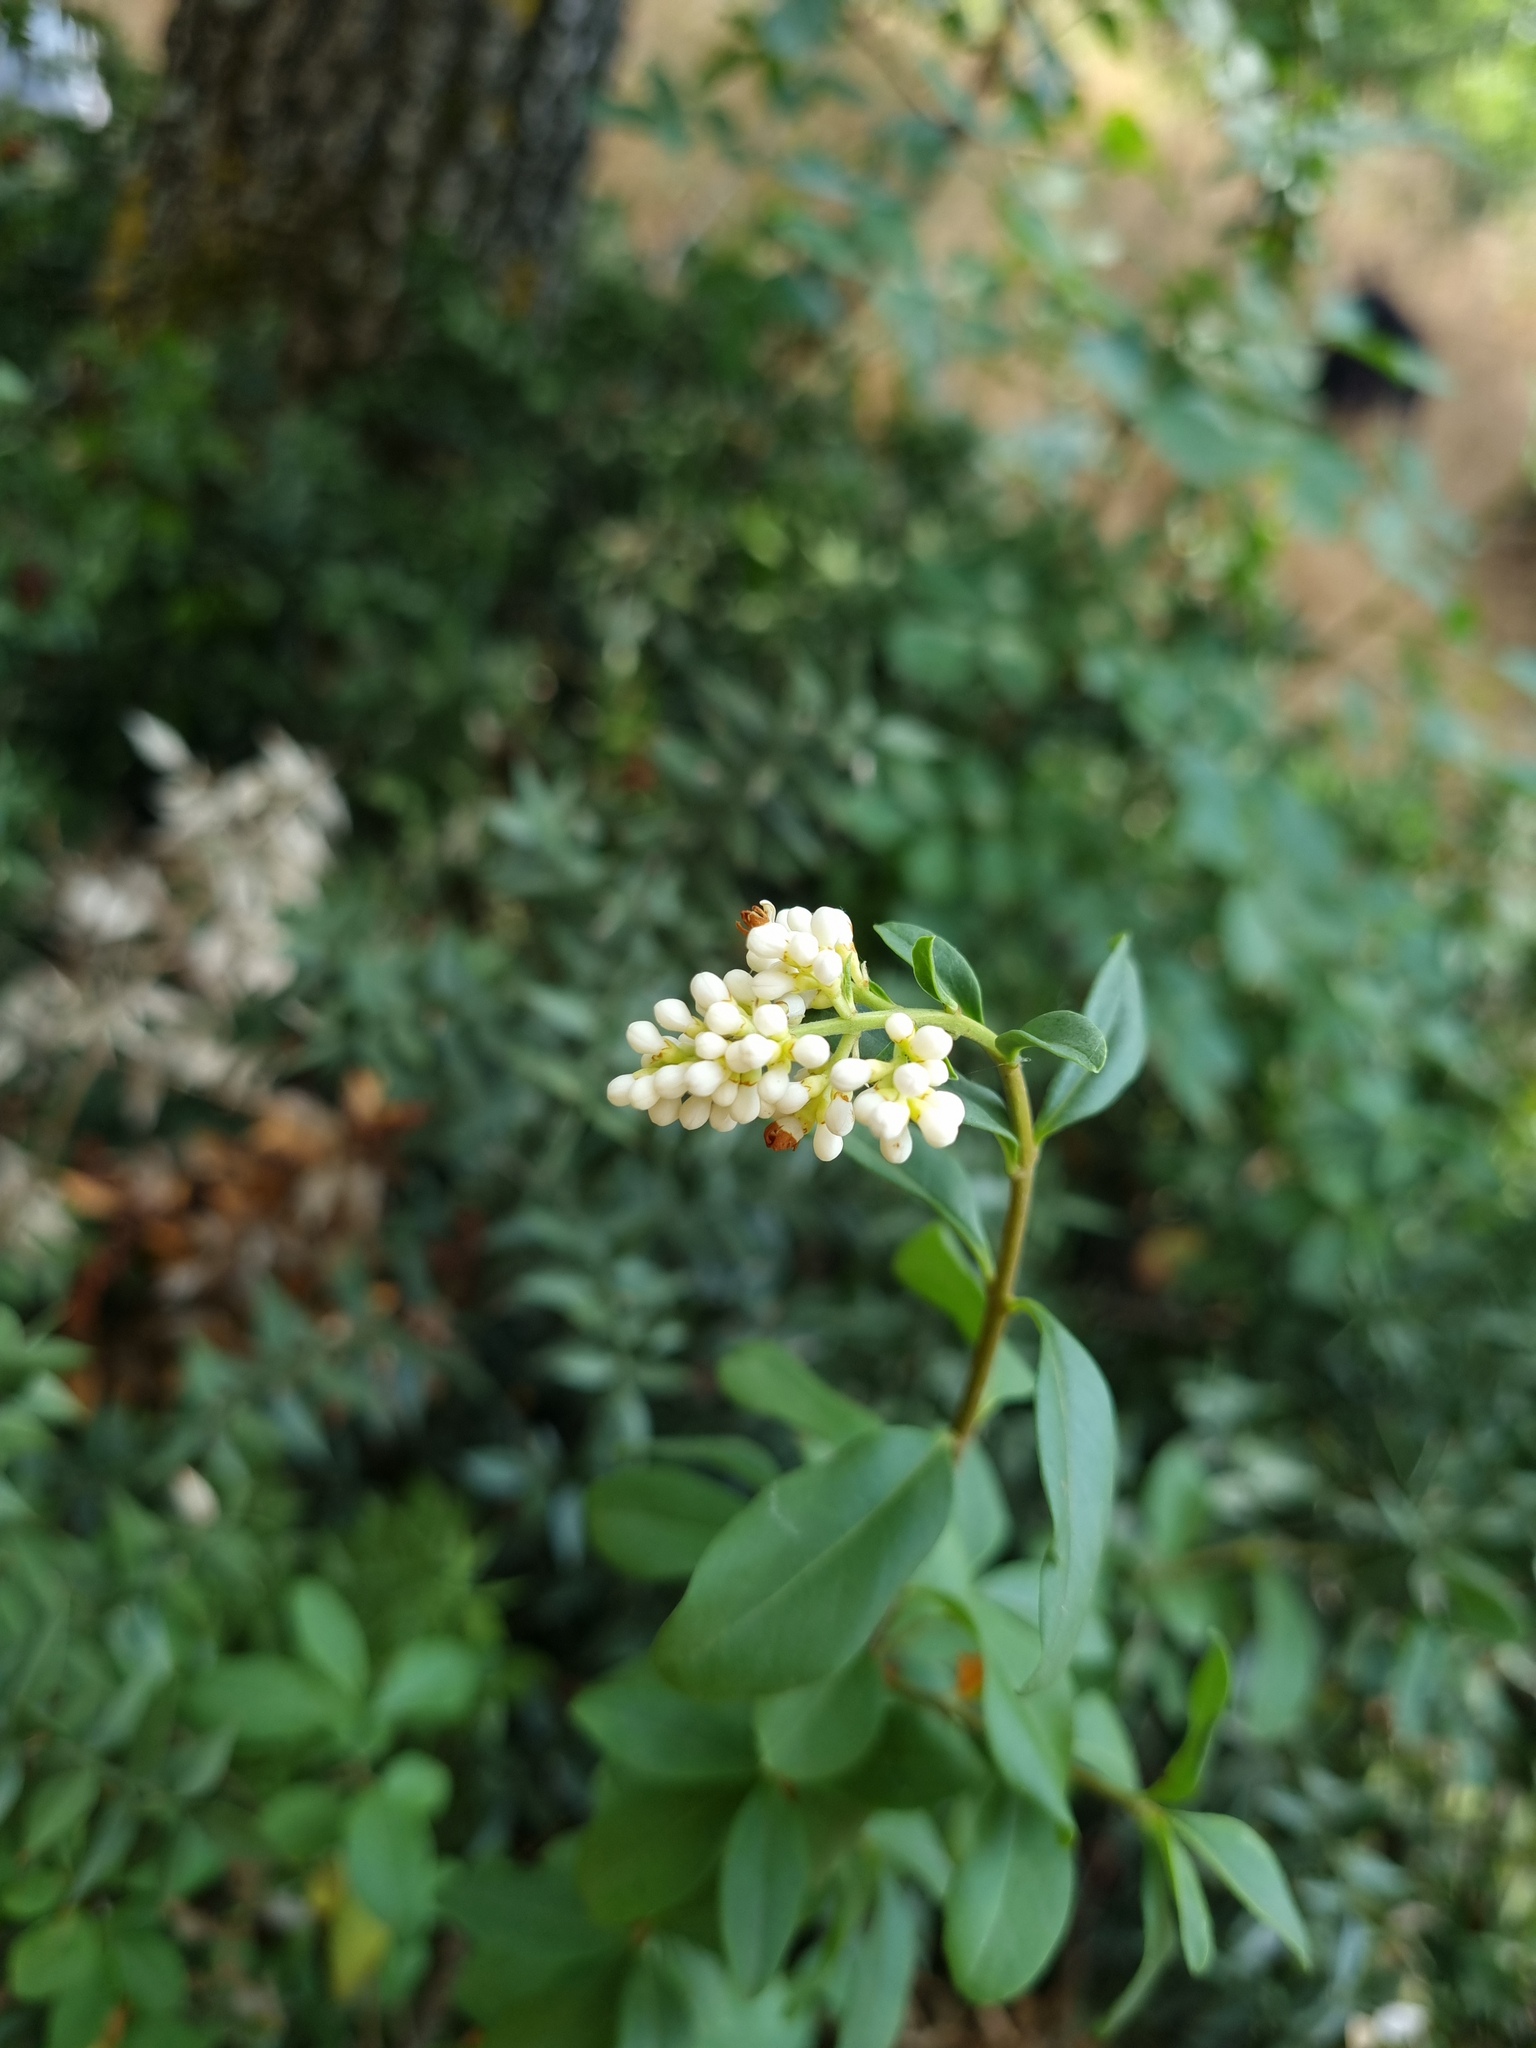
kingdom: Plantae
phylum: Tracheophyta
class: Magnoliopsida
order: Lamiales
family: Oleaceae
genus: Ligustrum
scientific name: Ligustrum vulgare
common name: Wild privet
